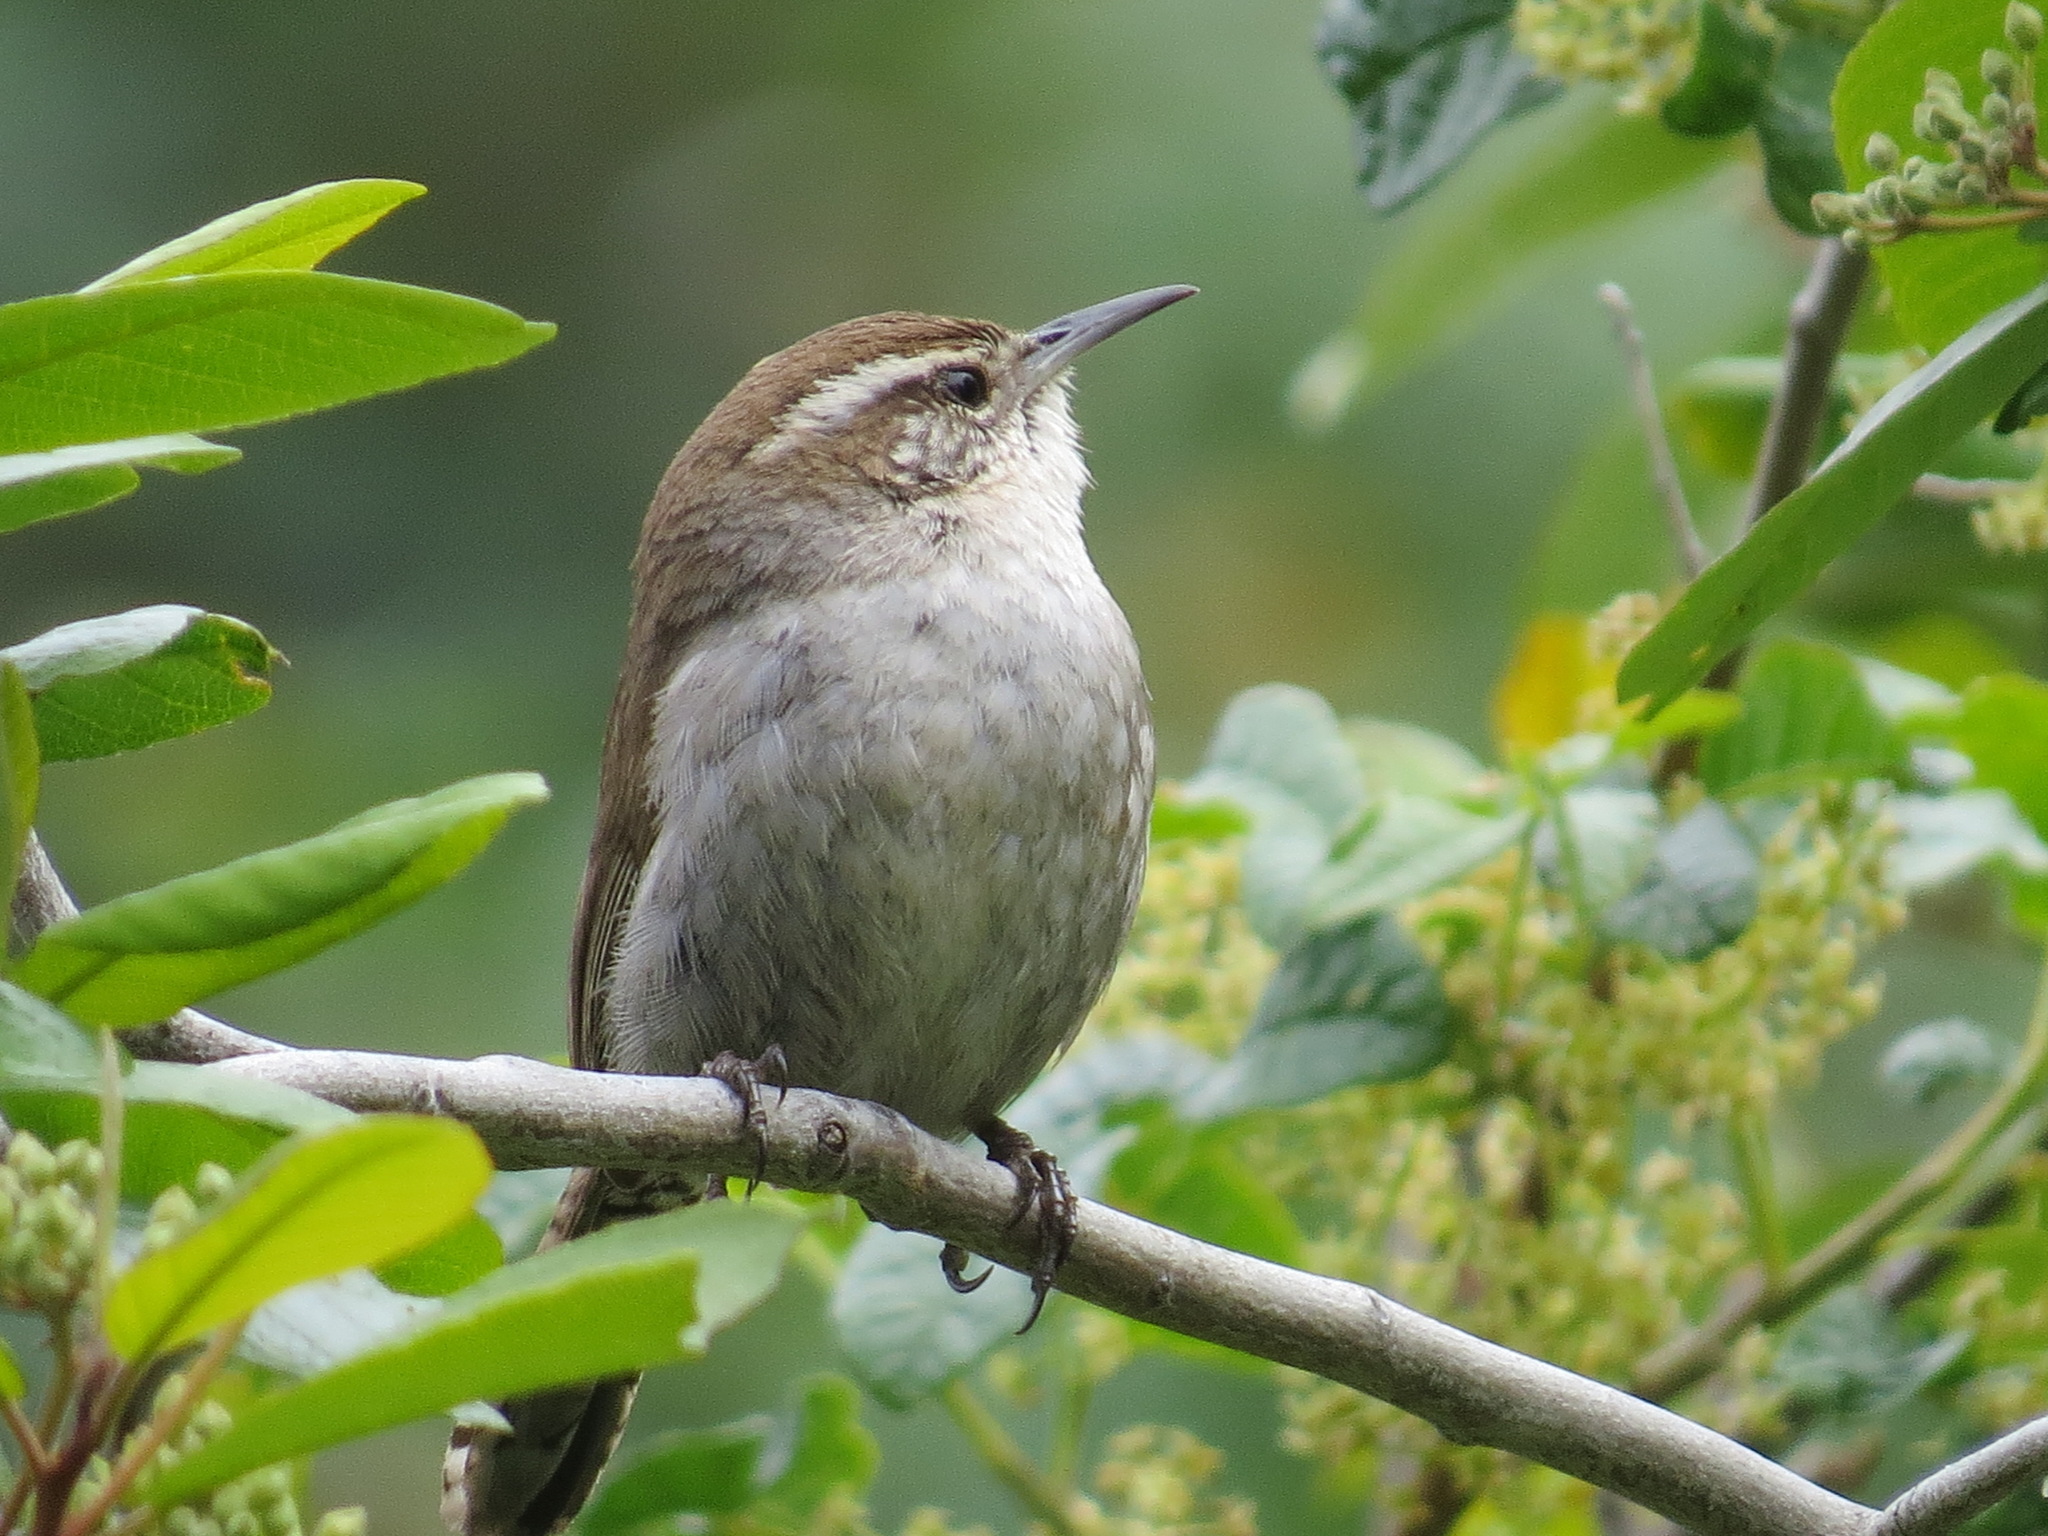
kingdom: Animalia
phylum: Chordata
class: Aves
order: Passeriformes
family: Troglodytidae
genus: Thryomanes
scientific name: Thryomanes bewickii
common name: Bewick's wren
